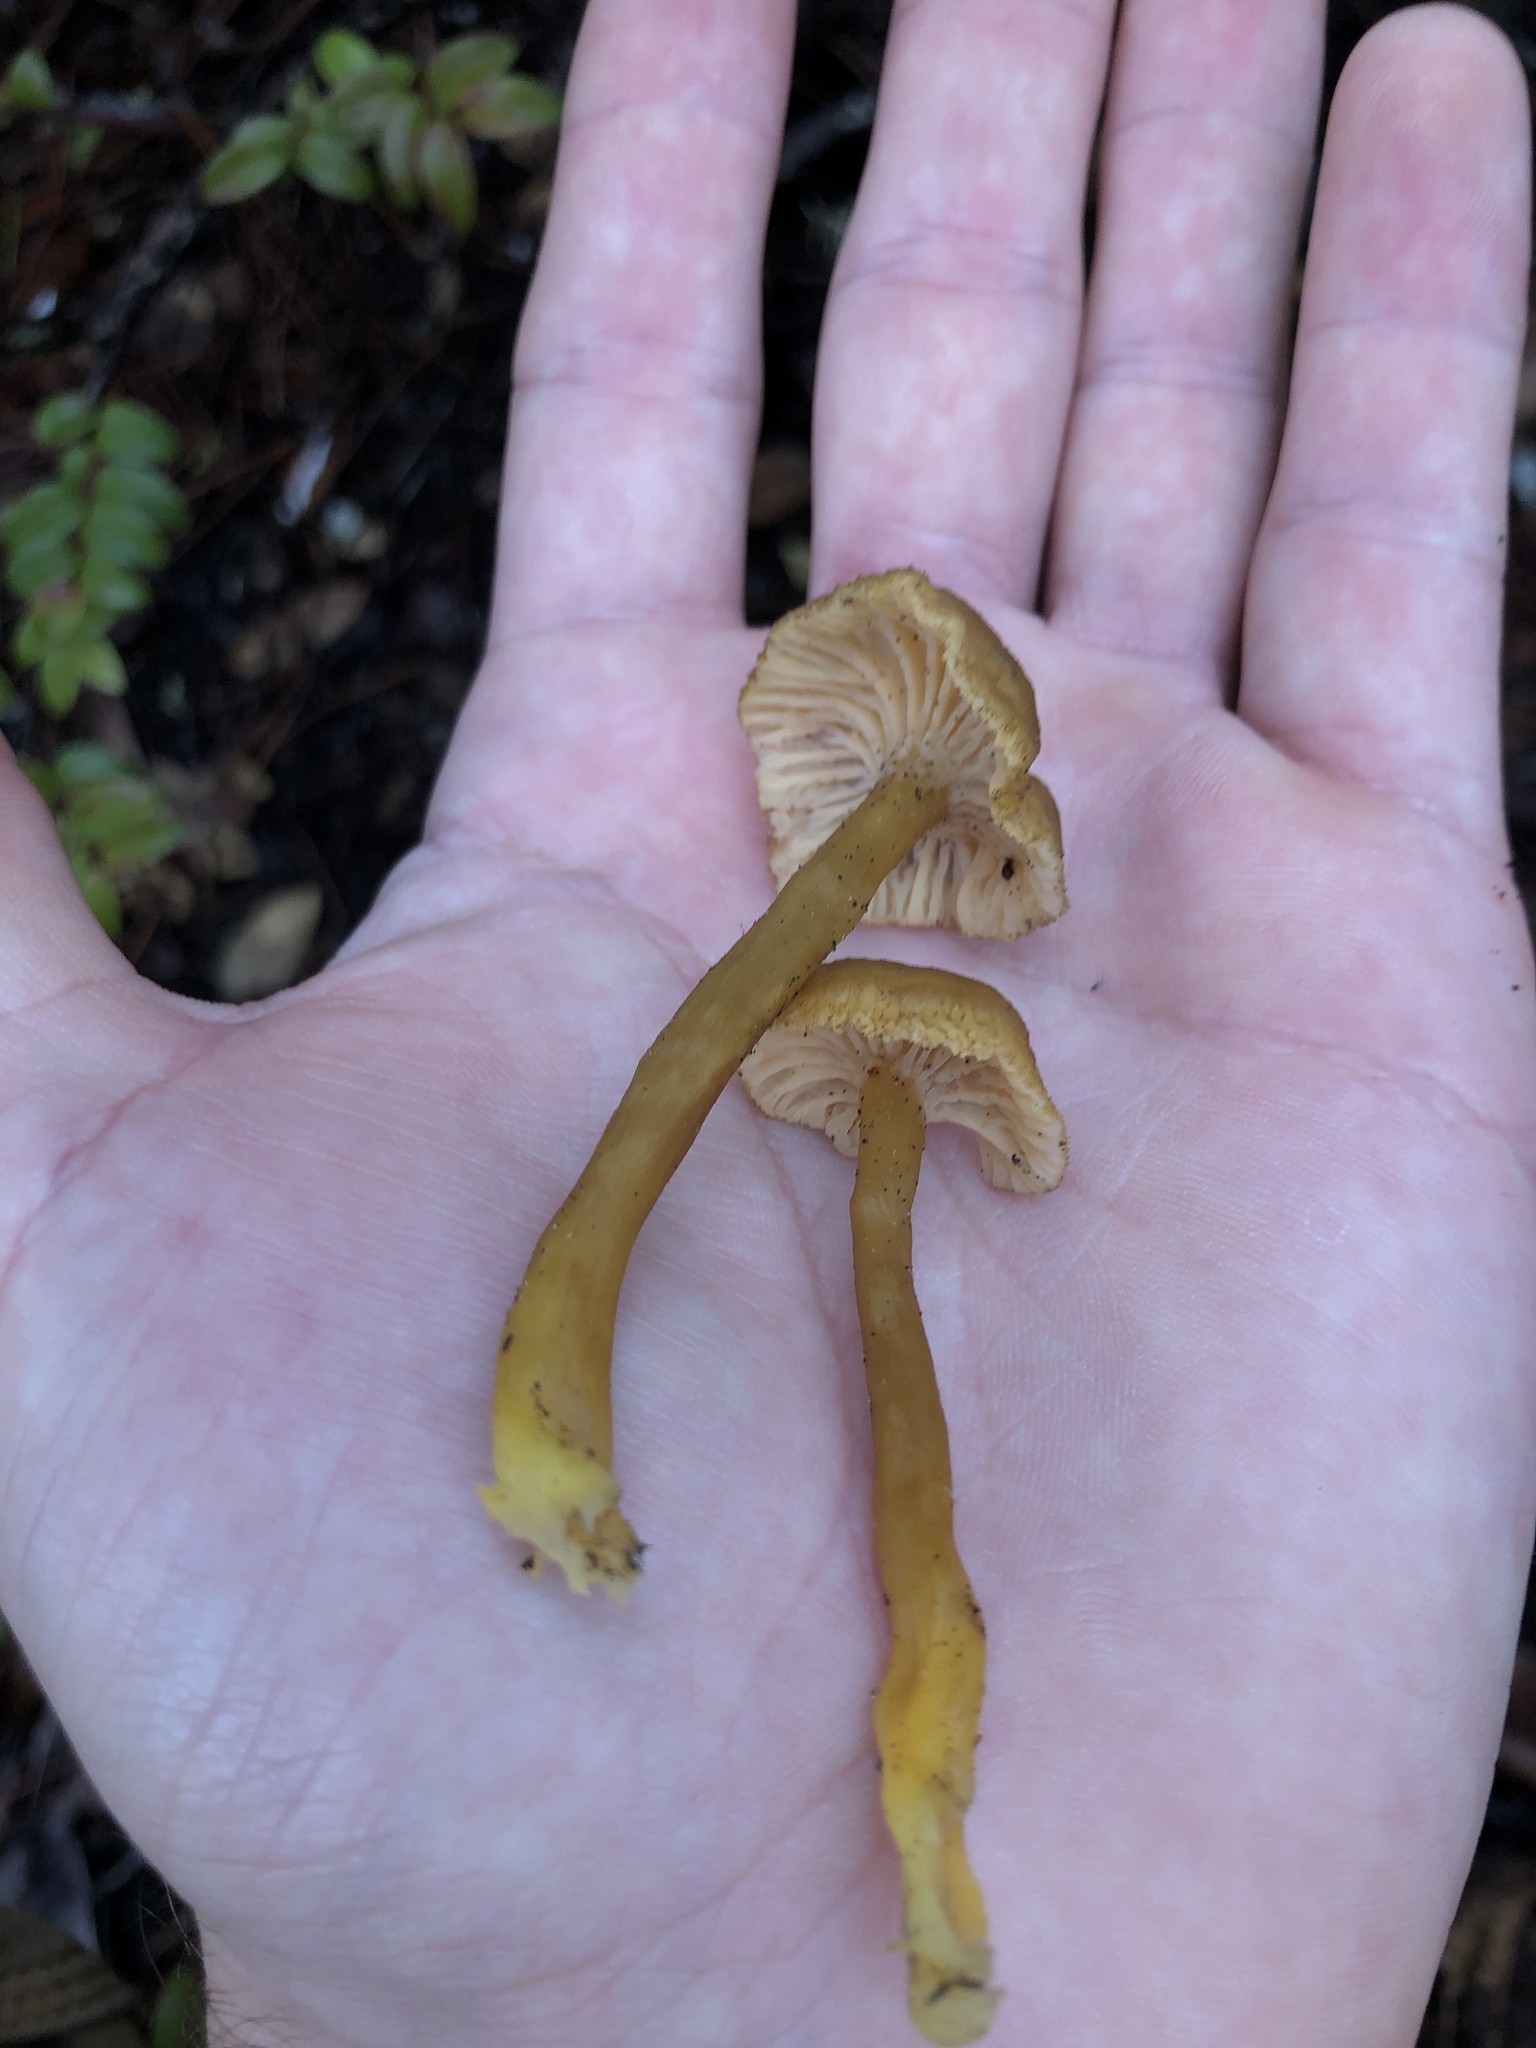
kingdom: Fungi
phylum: Basidiomycota
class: Agaricomycetes
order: Cantharellales
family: Hydnaceae
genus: Craterellus
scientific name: Craterellus tubaeformis
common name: Yellowfoot
